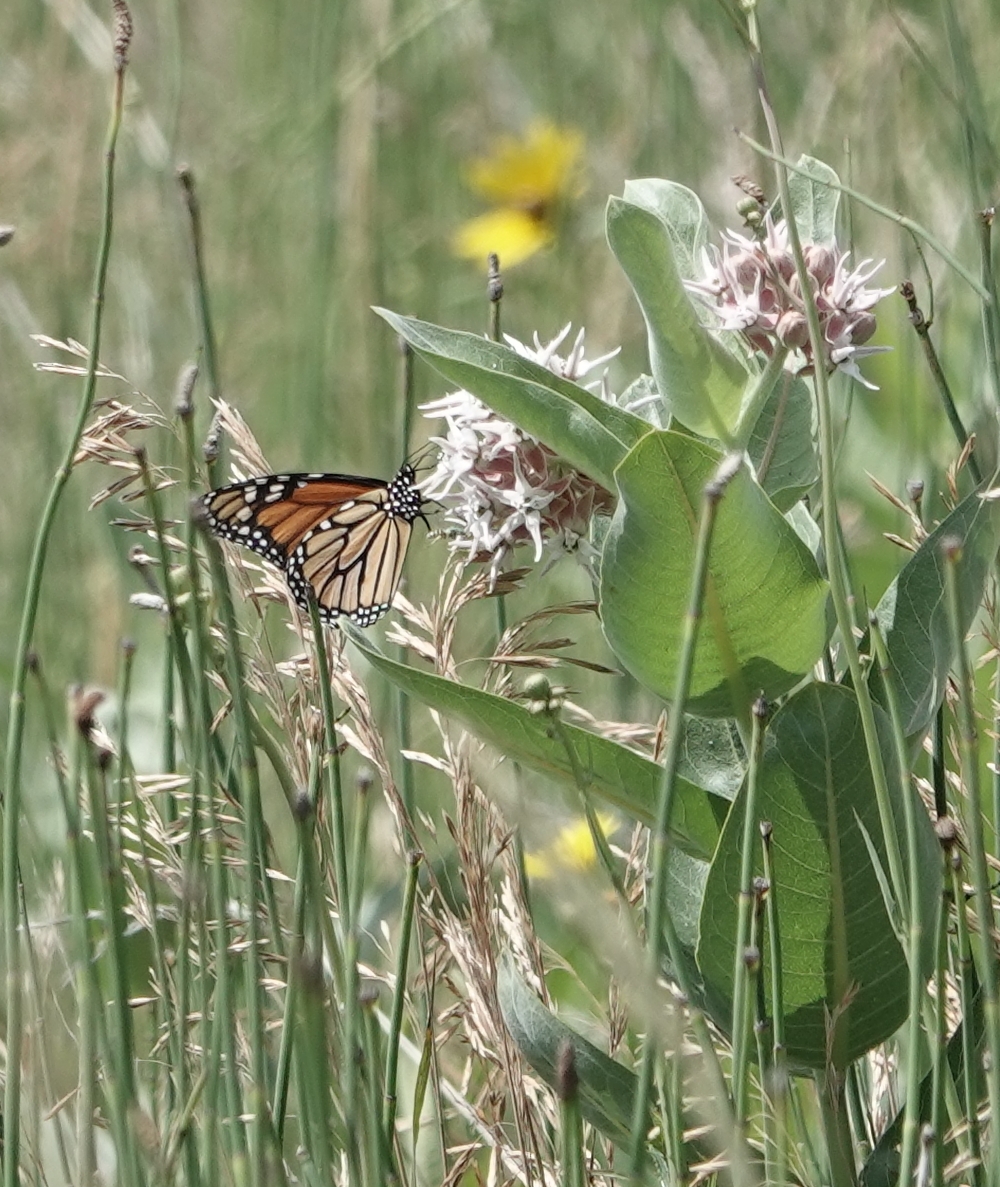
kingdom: Animalia
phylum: Arthropoda
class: Insecta
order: Lepidoptera
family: Nymphalidae
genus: Danaus
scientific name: Danaus plexippus
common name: Monarch
